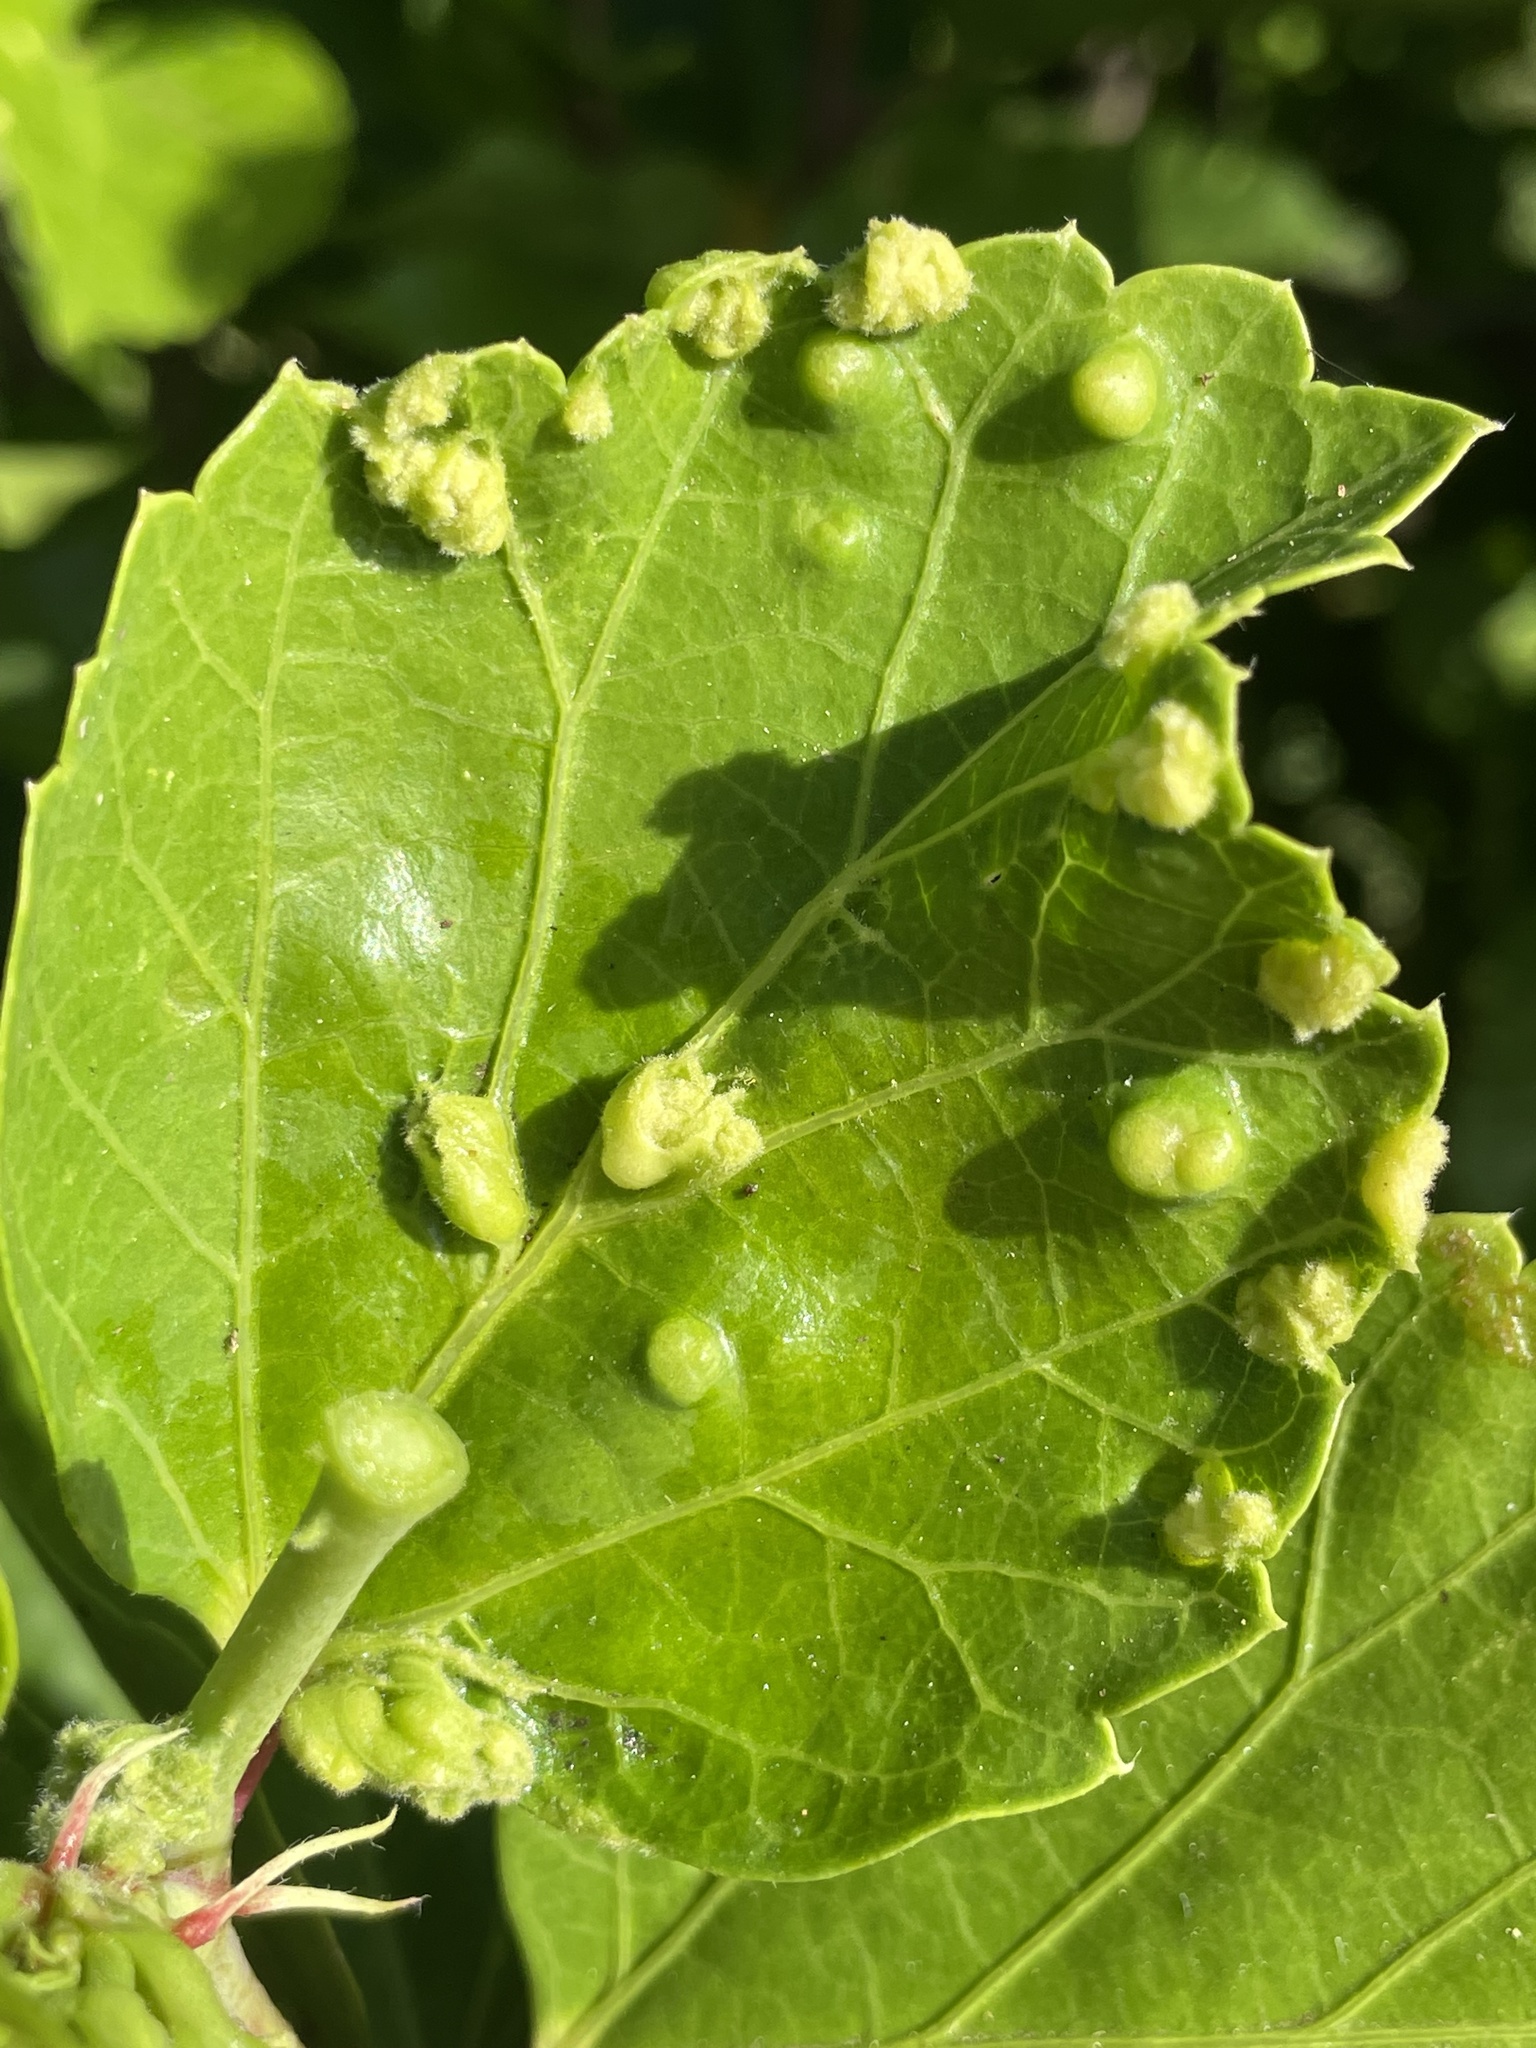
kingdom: Animalia
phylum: Arthropoda
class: Arachnida
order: Trombidiformes
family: Eriophyidae
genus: Aceria
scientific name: Aceria hibisci
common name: Mite
